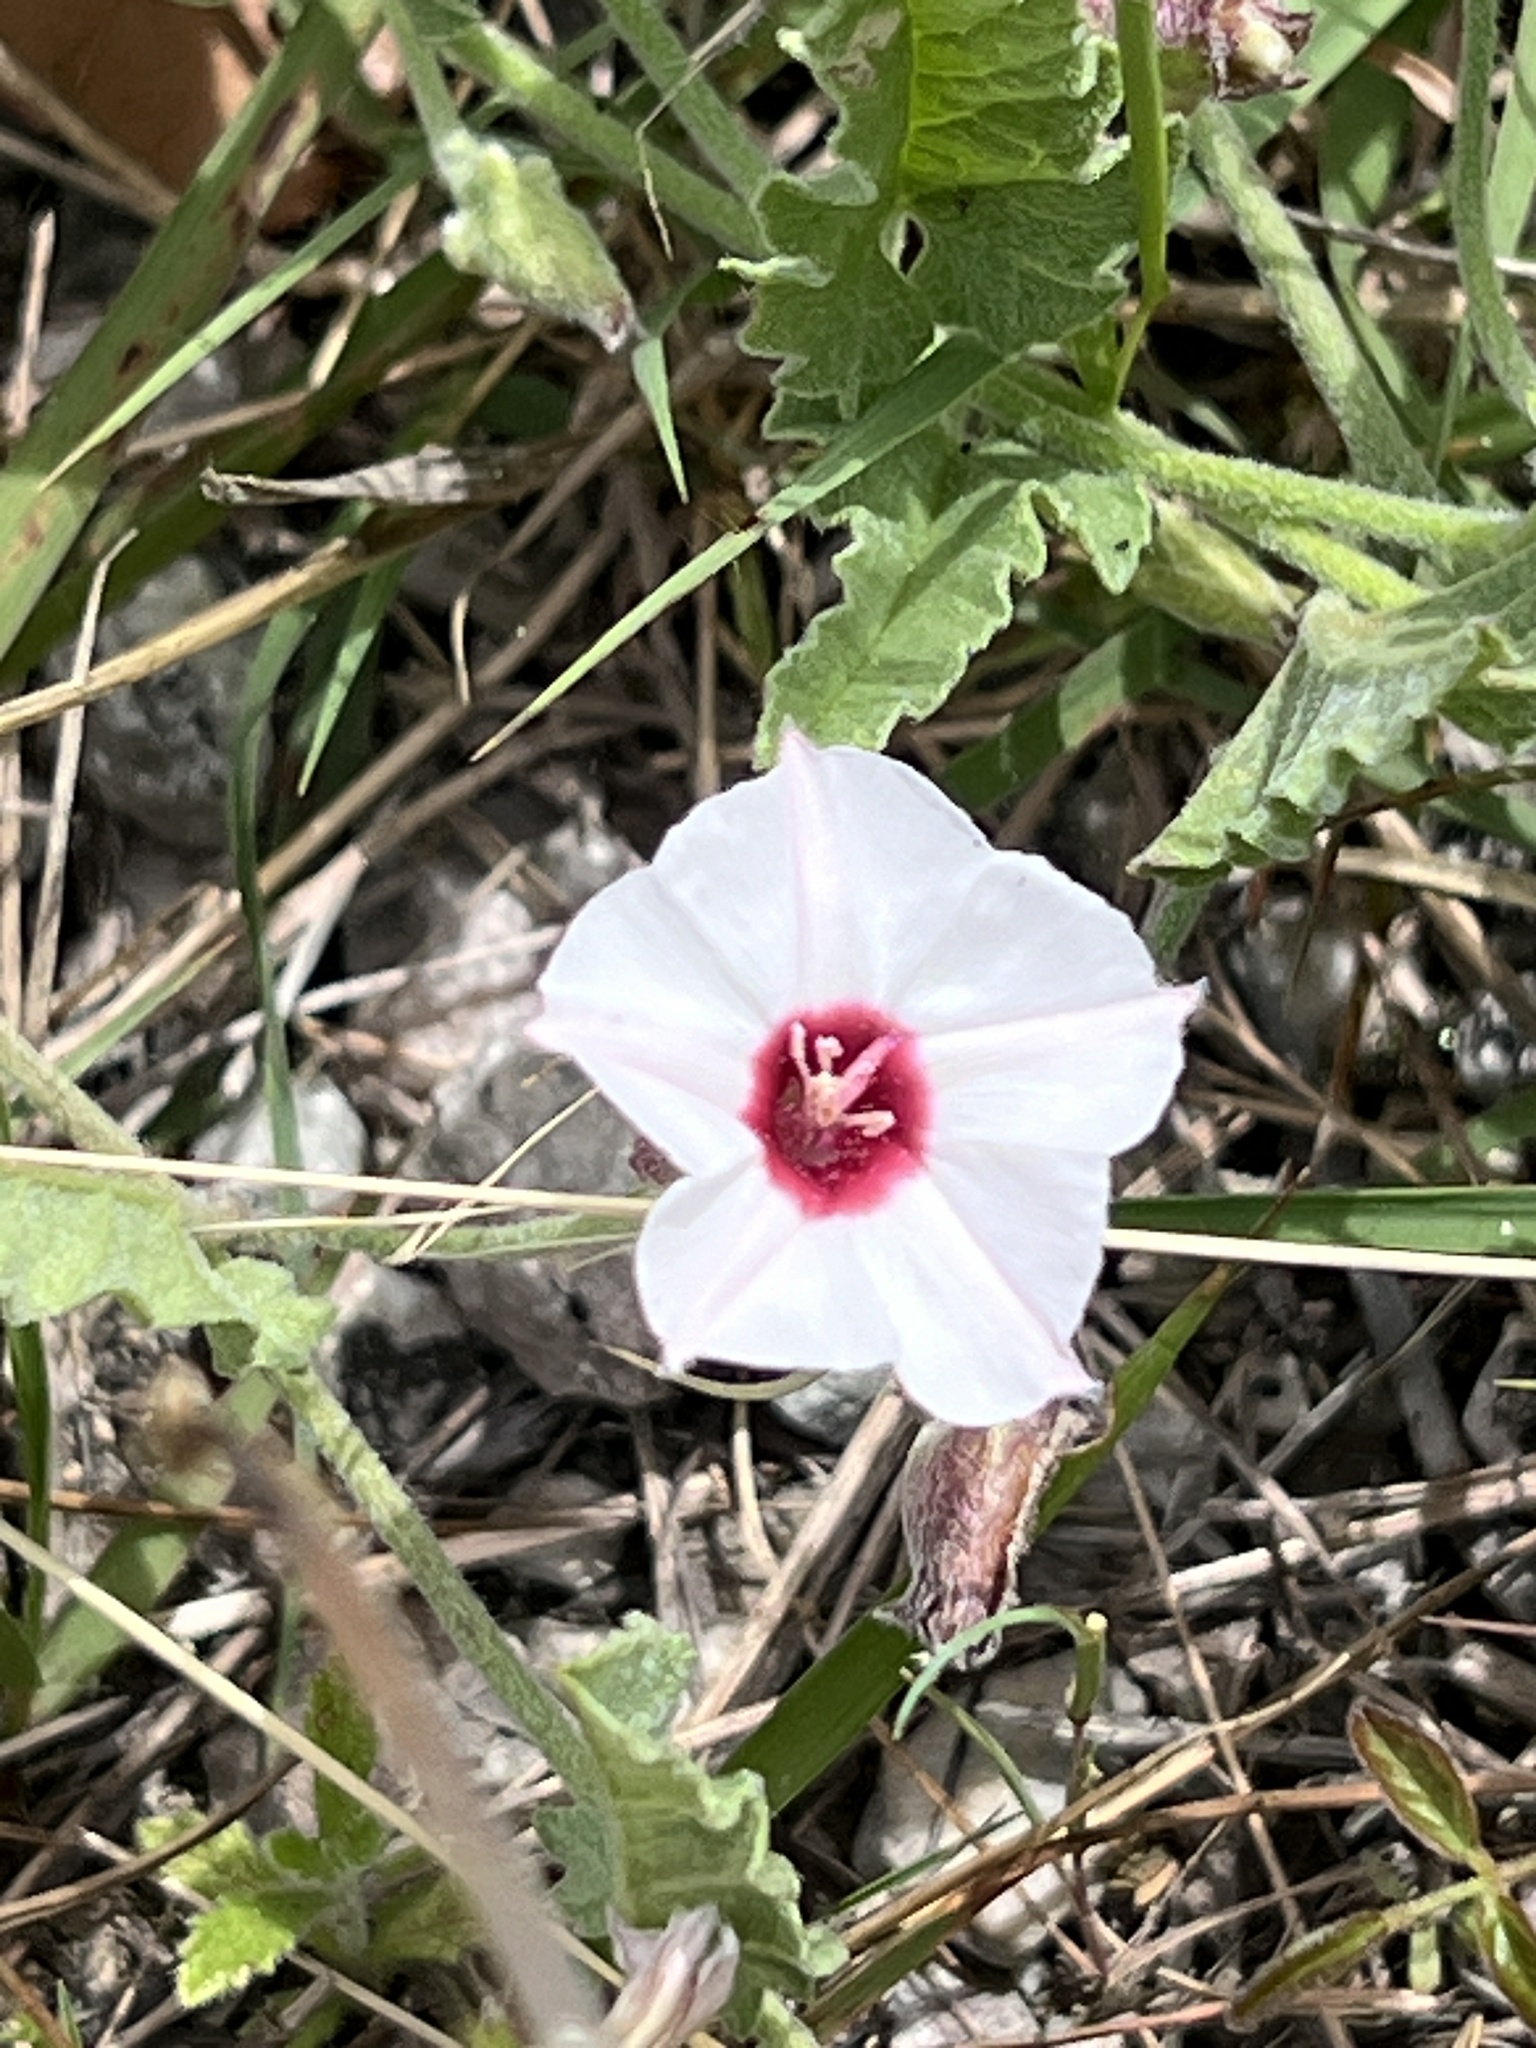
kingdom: Plantae
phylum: Tracheophyta
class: Magnoliopsida
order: Solanales
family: Convolvulaceae
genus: Convolvulus
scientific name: Convolvulus equitans
